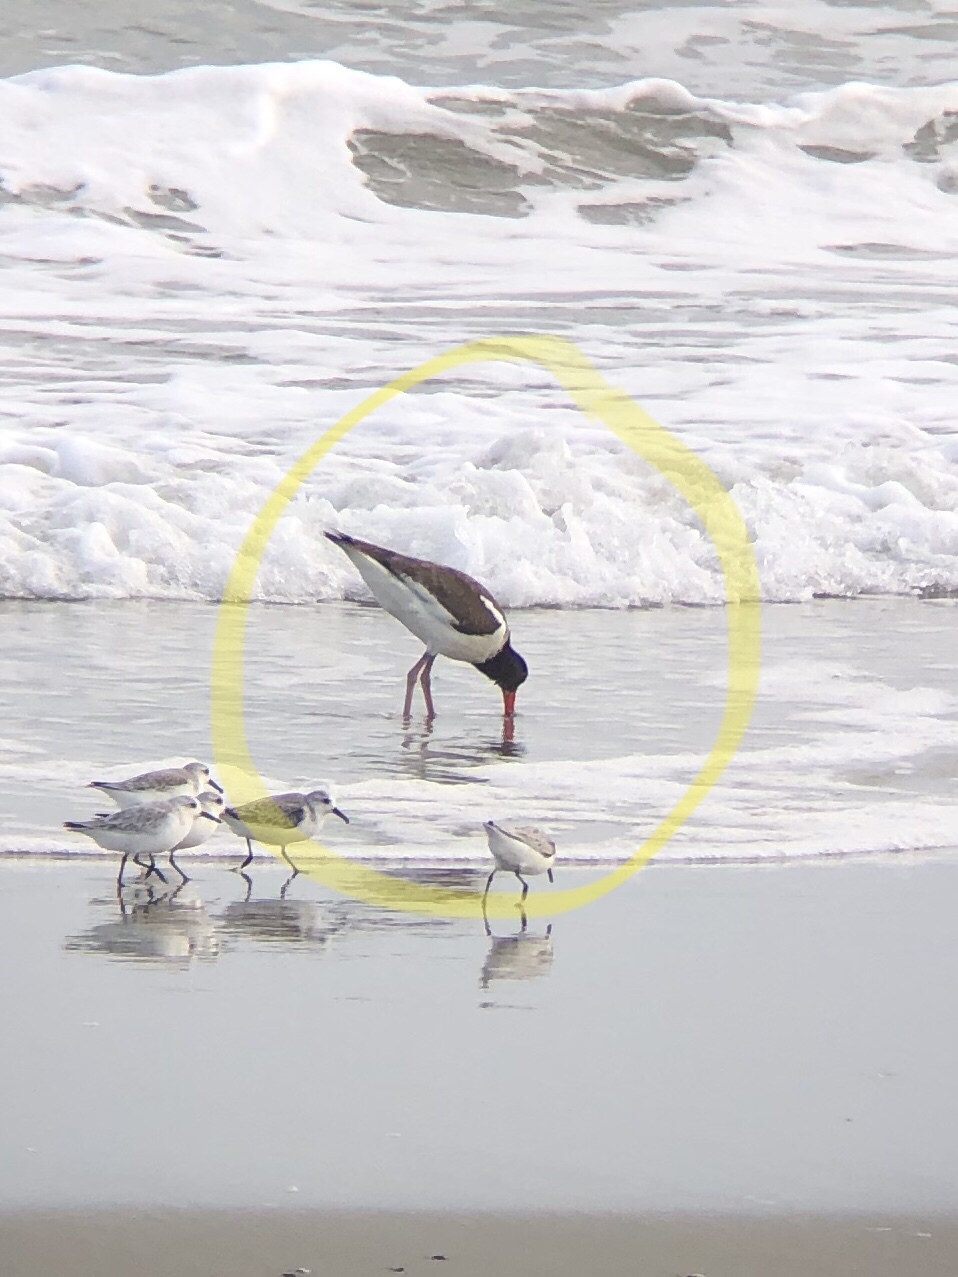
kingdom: Animalia
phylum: Chordata
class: Aves
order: Charadriiformes
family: Haematopodidae
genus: Haematopus
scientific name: Haematopus palliatus
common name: American oystercatcher
